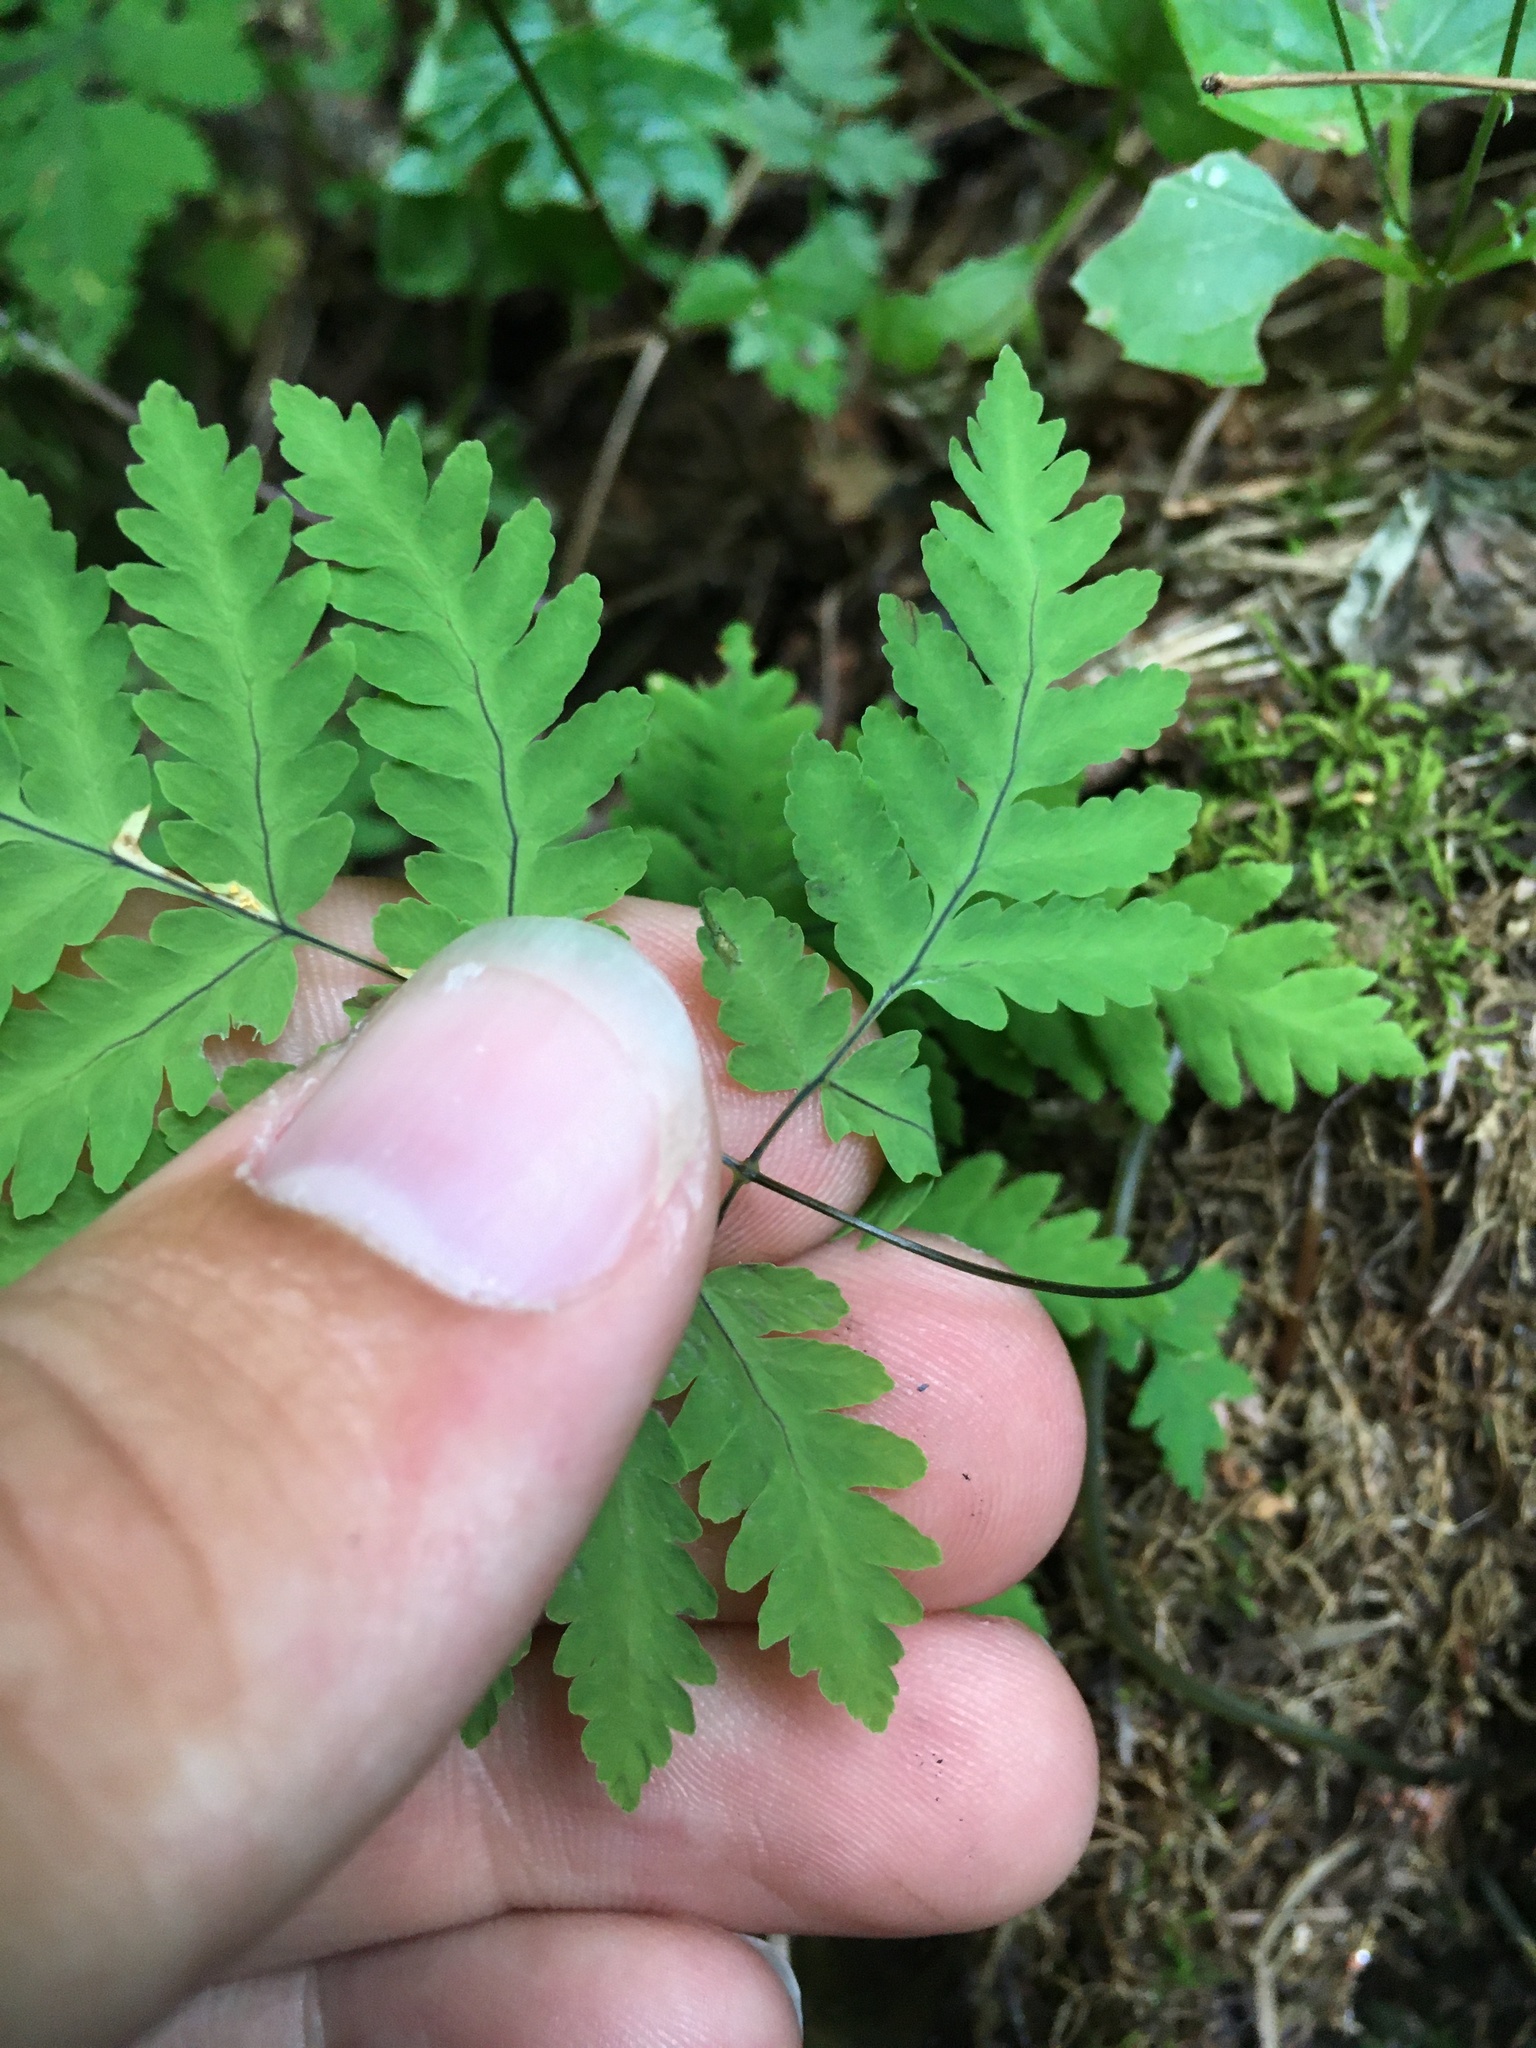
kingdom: Plantae
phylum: Tracheophyta
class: Polypodiopsida
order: Polypodiales
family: Cystopteridaceae
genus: Gymnocarpium
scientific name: Gymnocarpium dryopteris
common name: Oak fern
